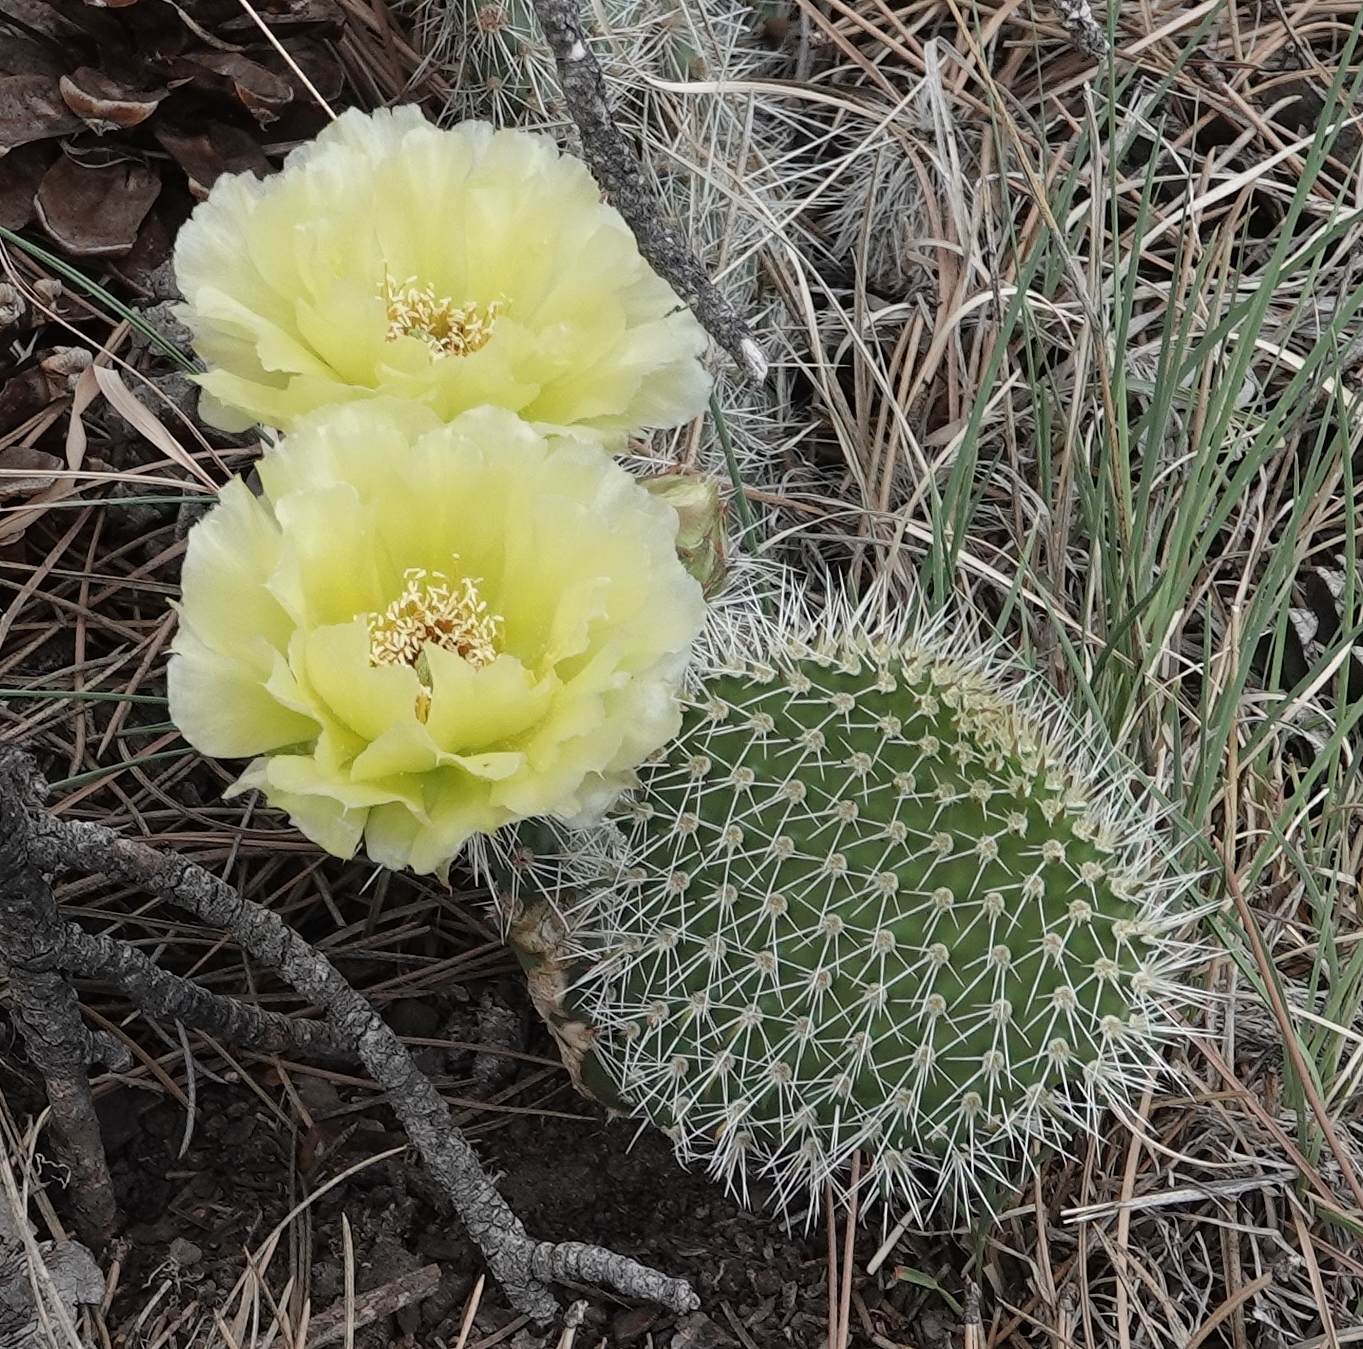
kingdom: Plantae
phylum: Tracheophyta
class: Magnoliopsida
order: Caryophyllales
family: Cactaceae
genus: Opuntia
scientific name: Opuntia polyacantha
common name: Plains prickly-pear
